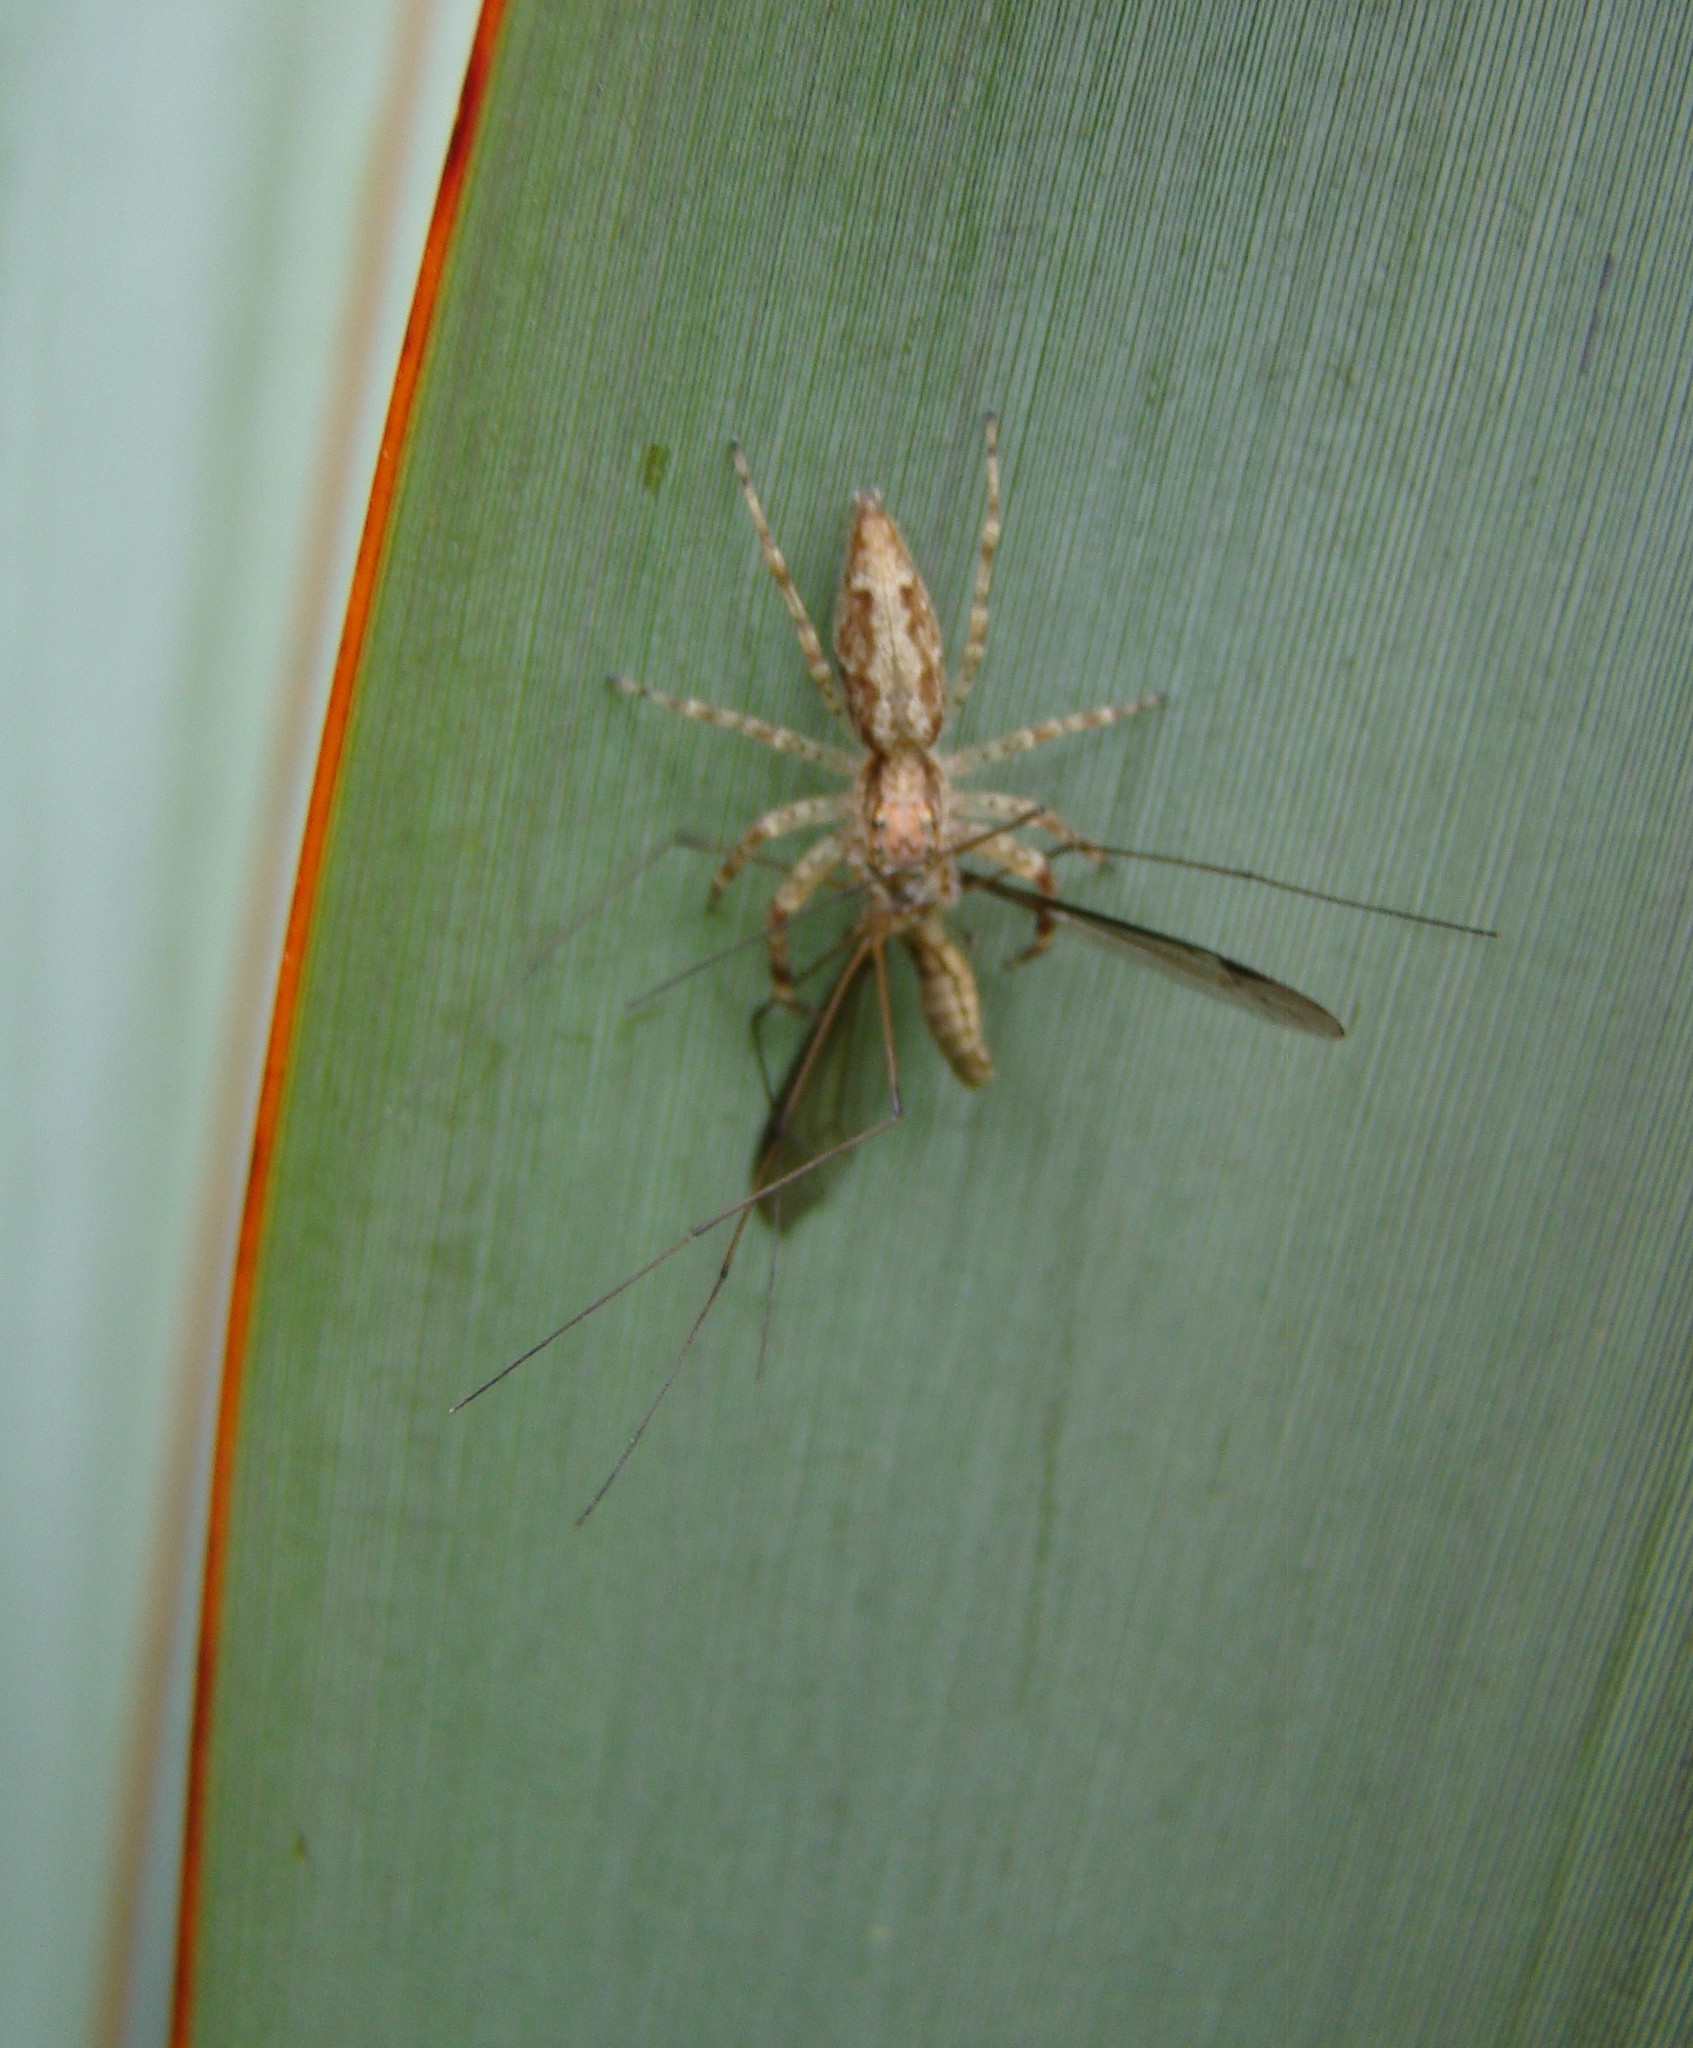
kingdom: Animalia
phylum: Arthropoda
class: Arachnida
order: Araneae
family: Salticidae
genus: Helpis
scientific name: Helpis minitabunda
